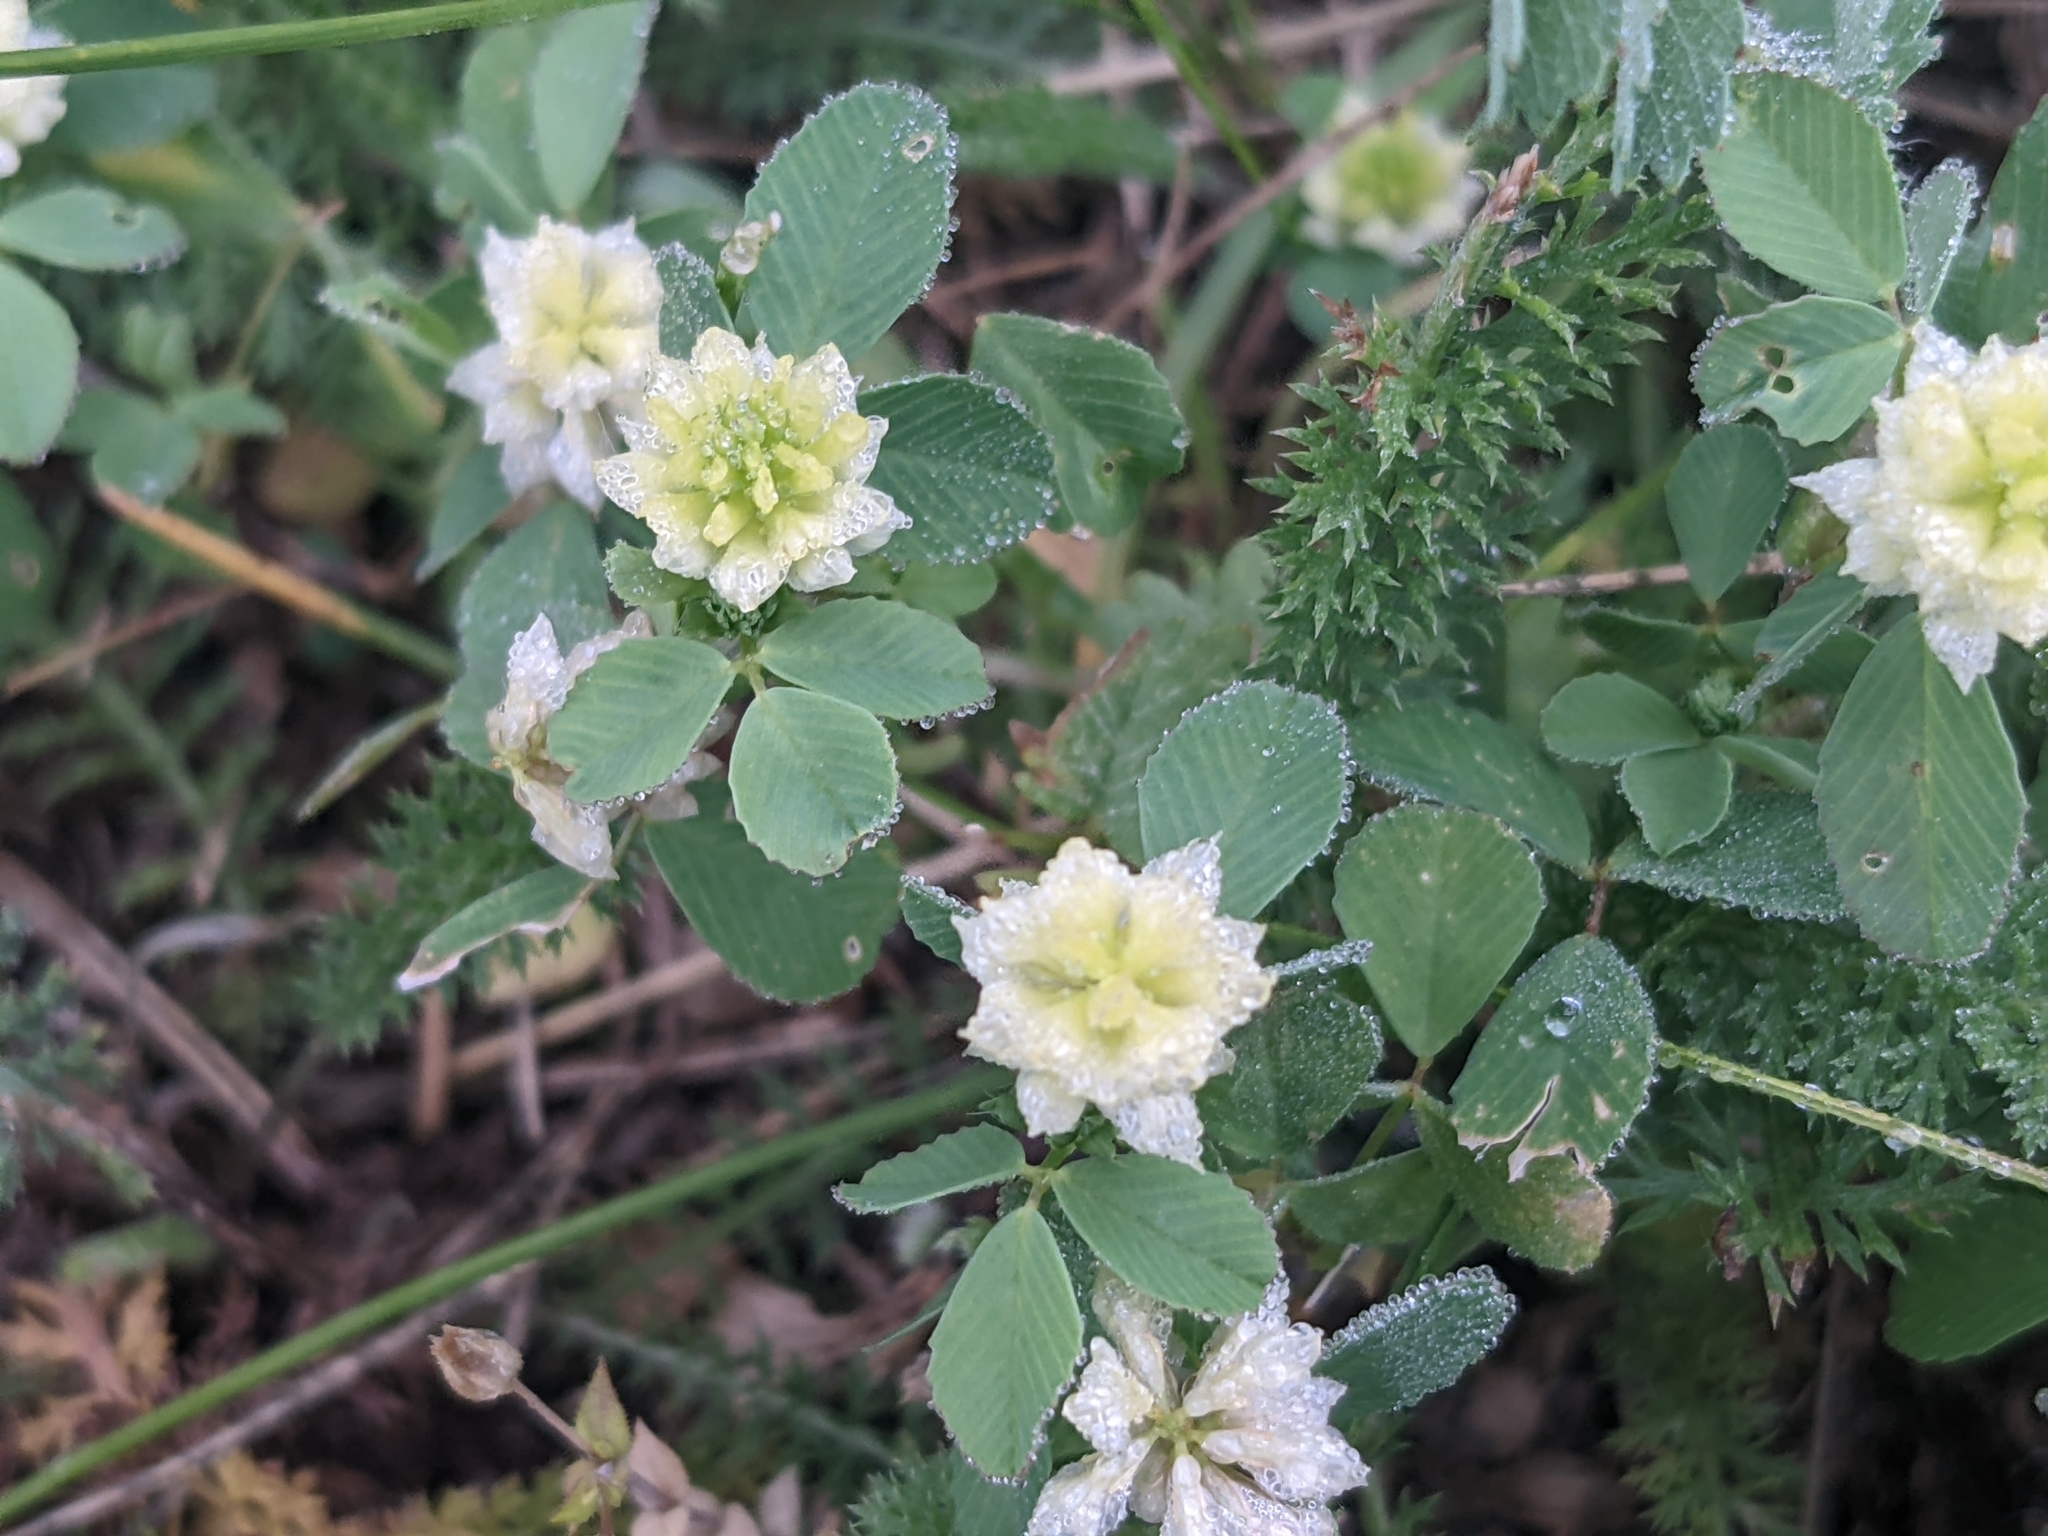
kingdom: Plantae
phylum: Tracheophyta
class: Magnoliopsida
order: Fabales
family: Fabaceae
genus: Trifolium
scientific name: Trifolium campestre
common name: Field clover
